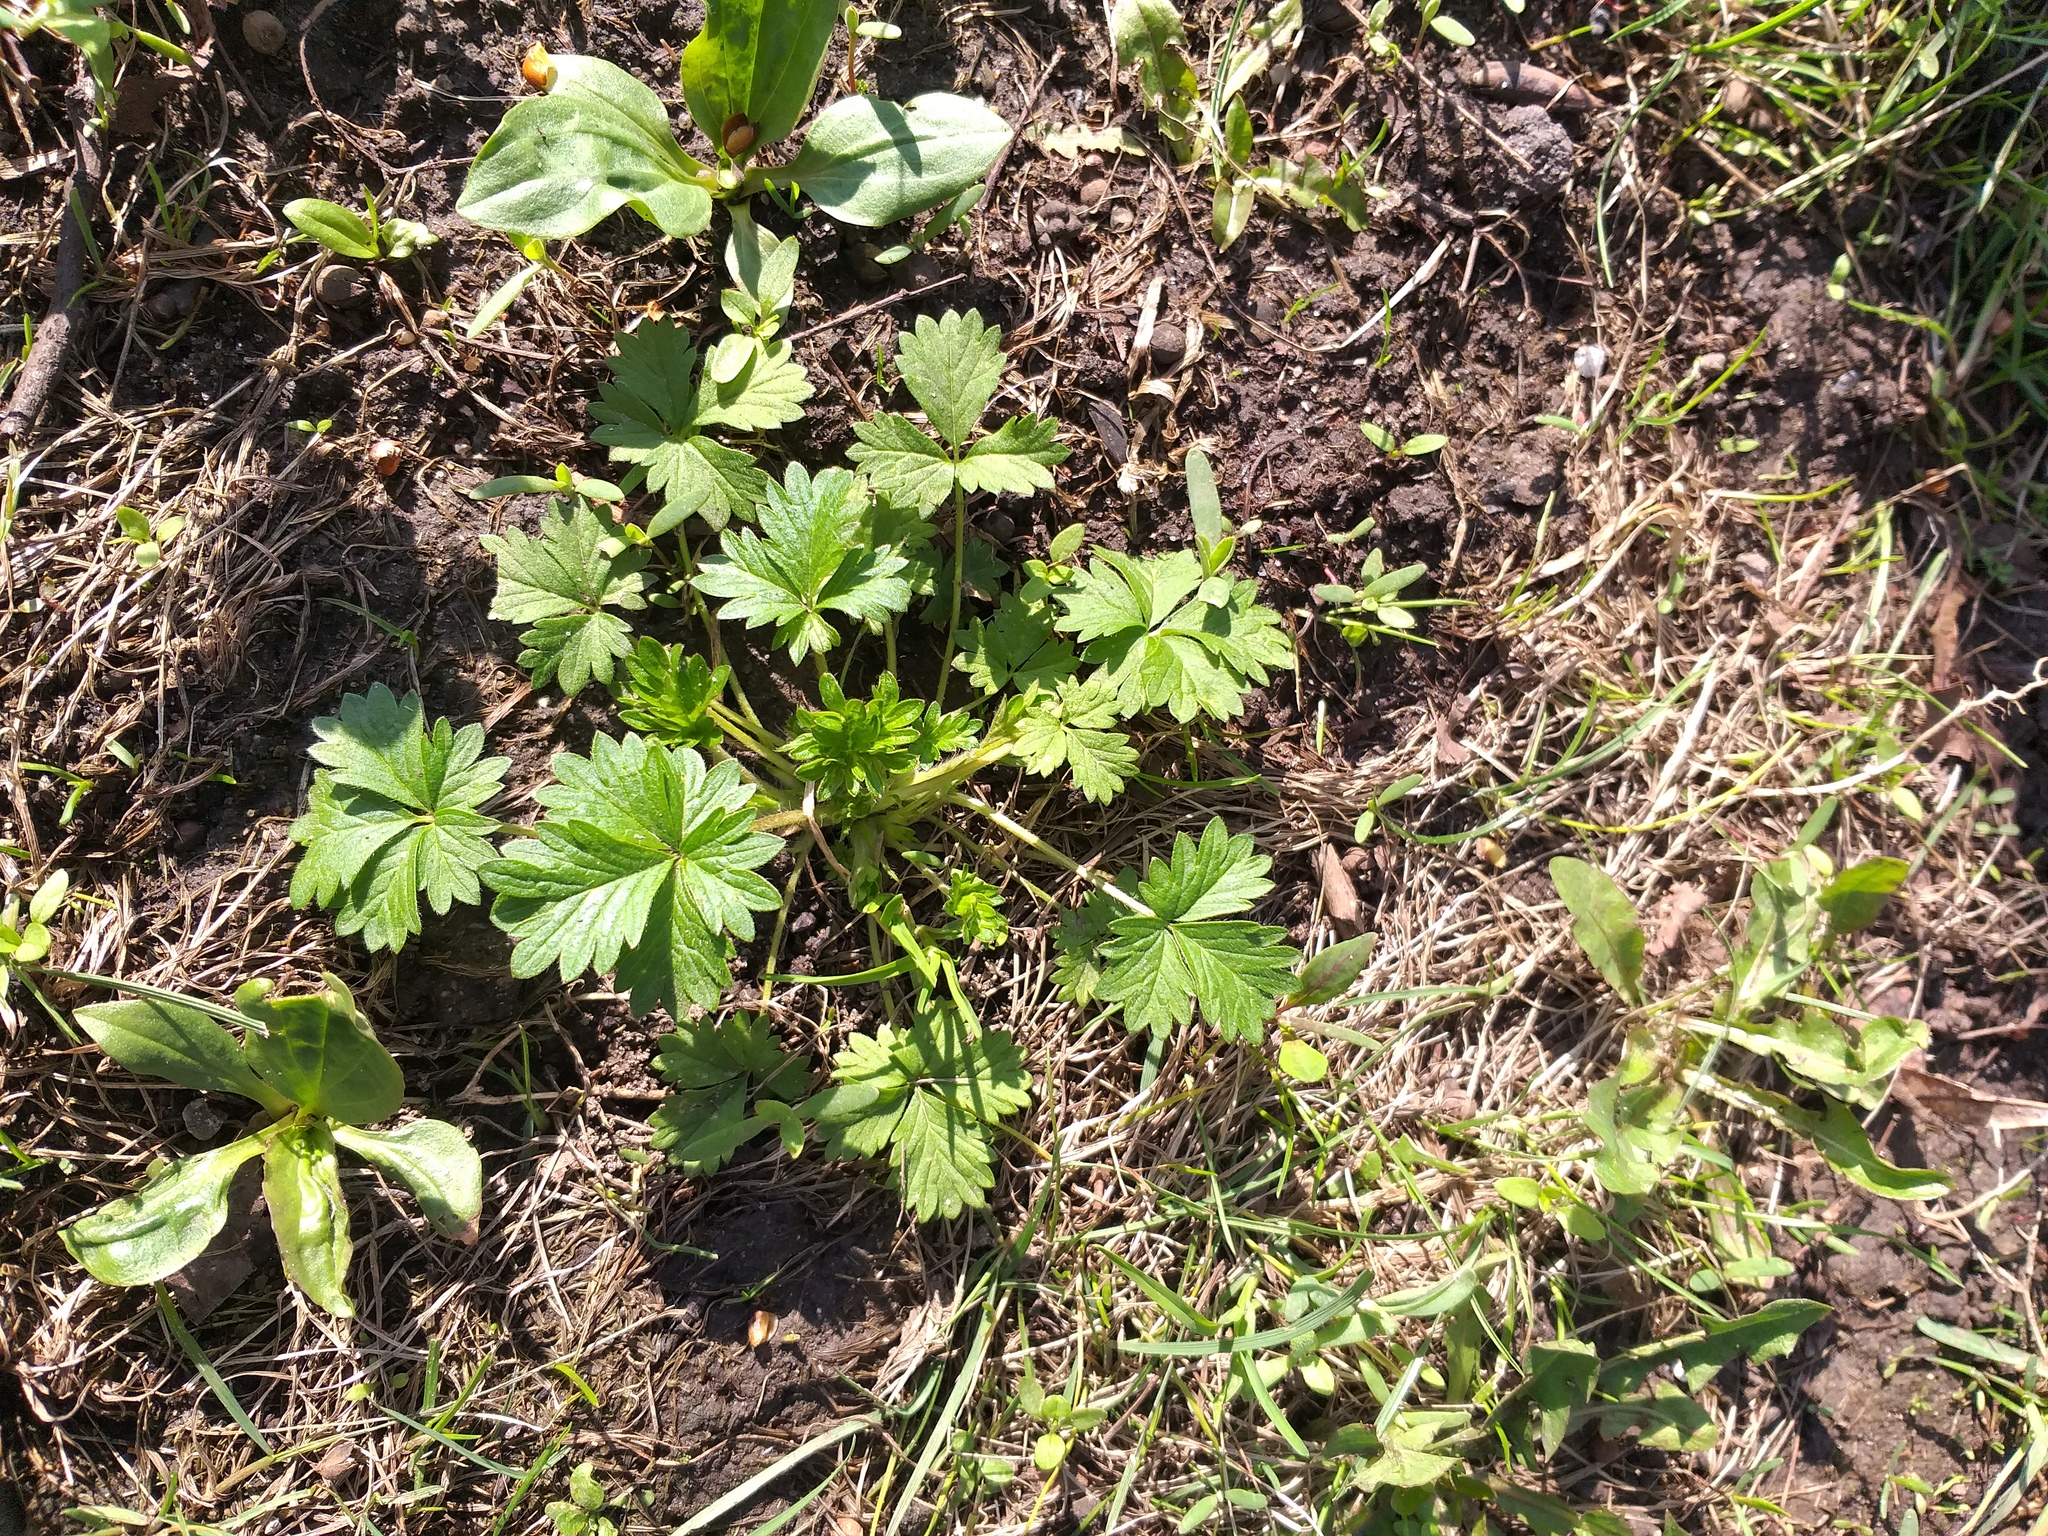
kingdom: Plantae
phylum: Tracheophyta
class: Magnoliopsida
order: Rosales
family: Rosaceae
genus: Potentilla
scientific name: Potentilla intermedia
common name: Downy cinquefoil
